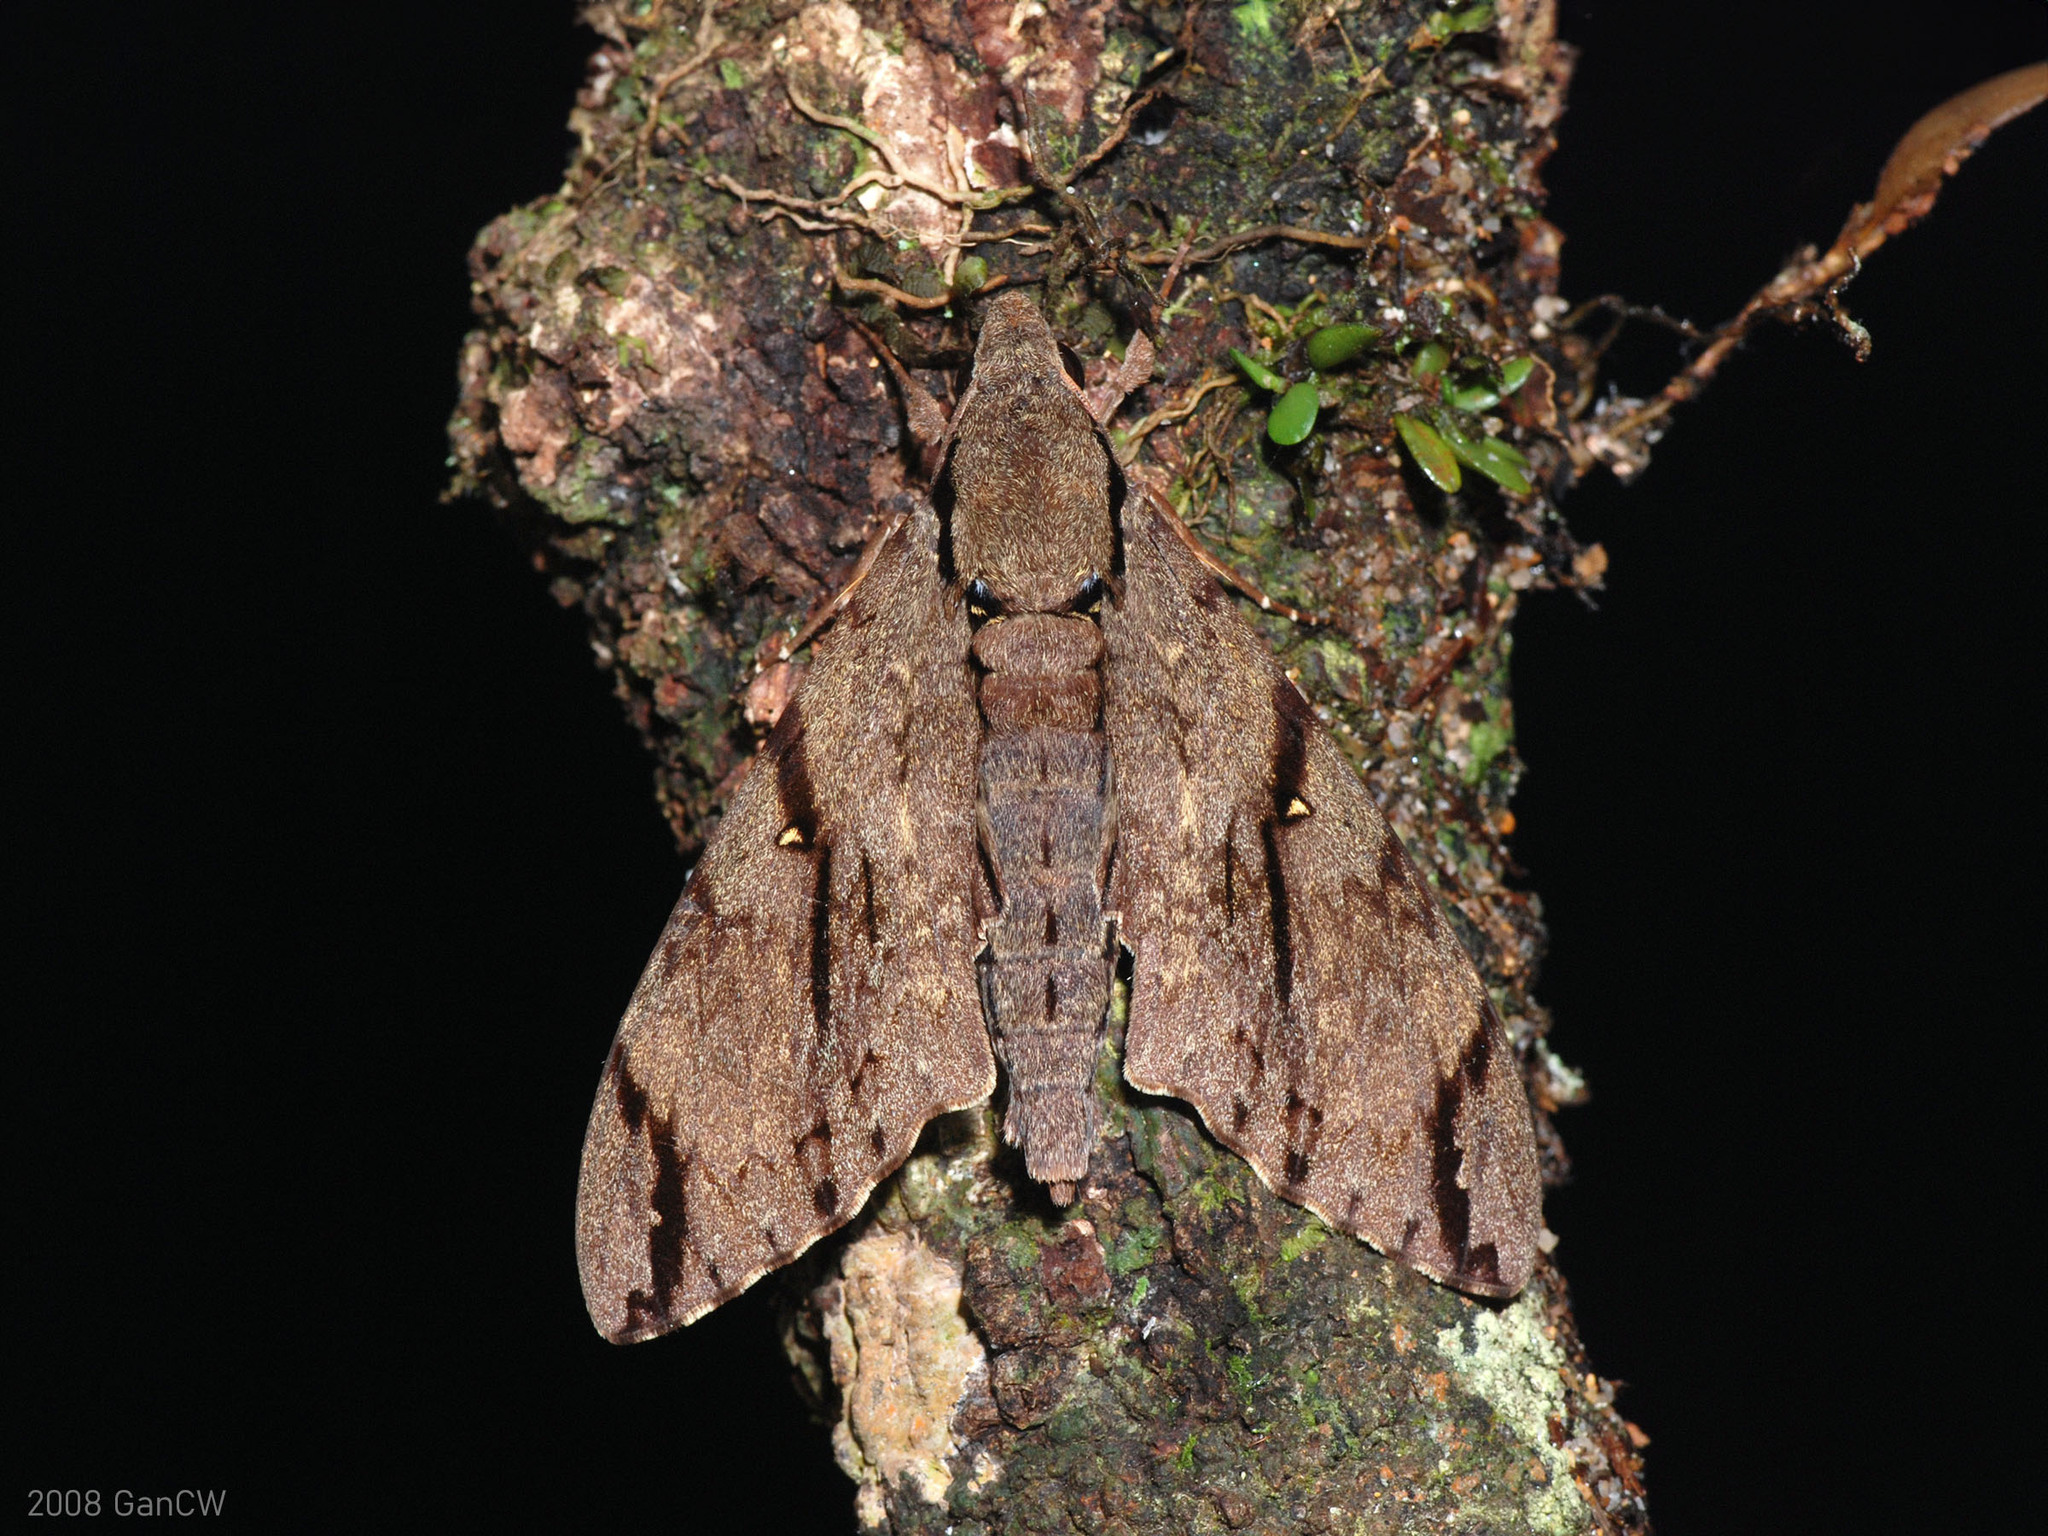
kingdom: Animalia
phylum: Arthropoda
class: Insecta
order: Lepidoptera
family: Sphingidae
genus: Cerberonoton
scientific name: Cerberonoton rubescens
